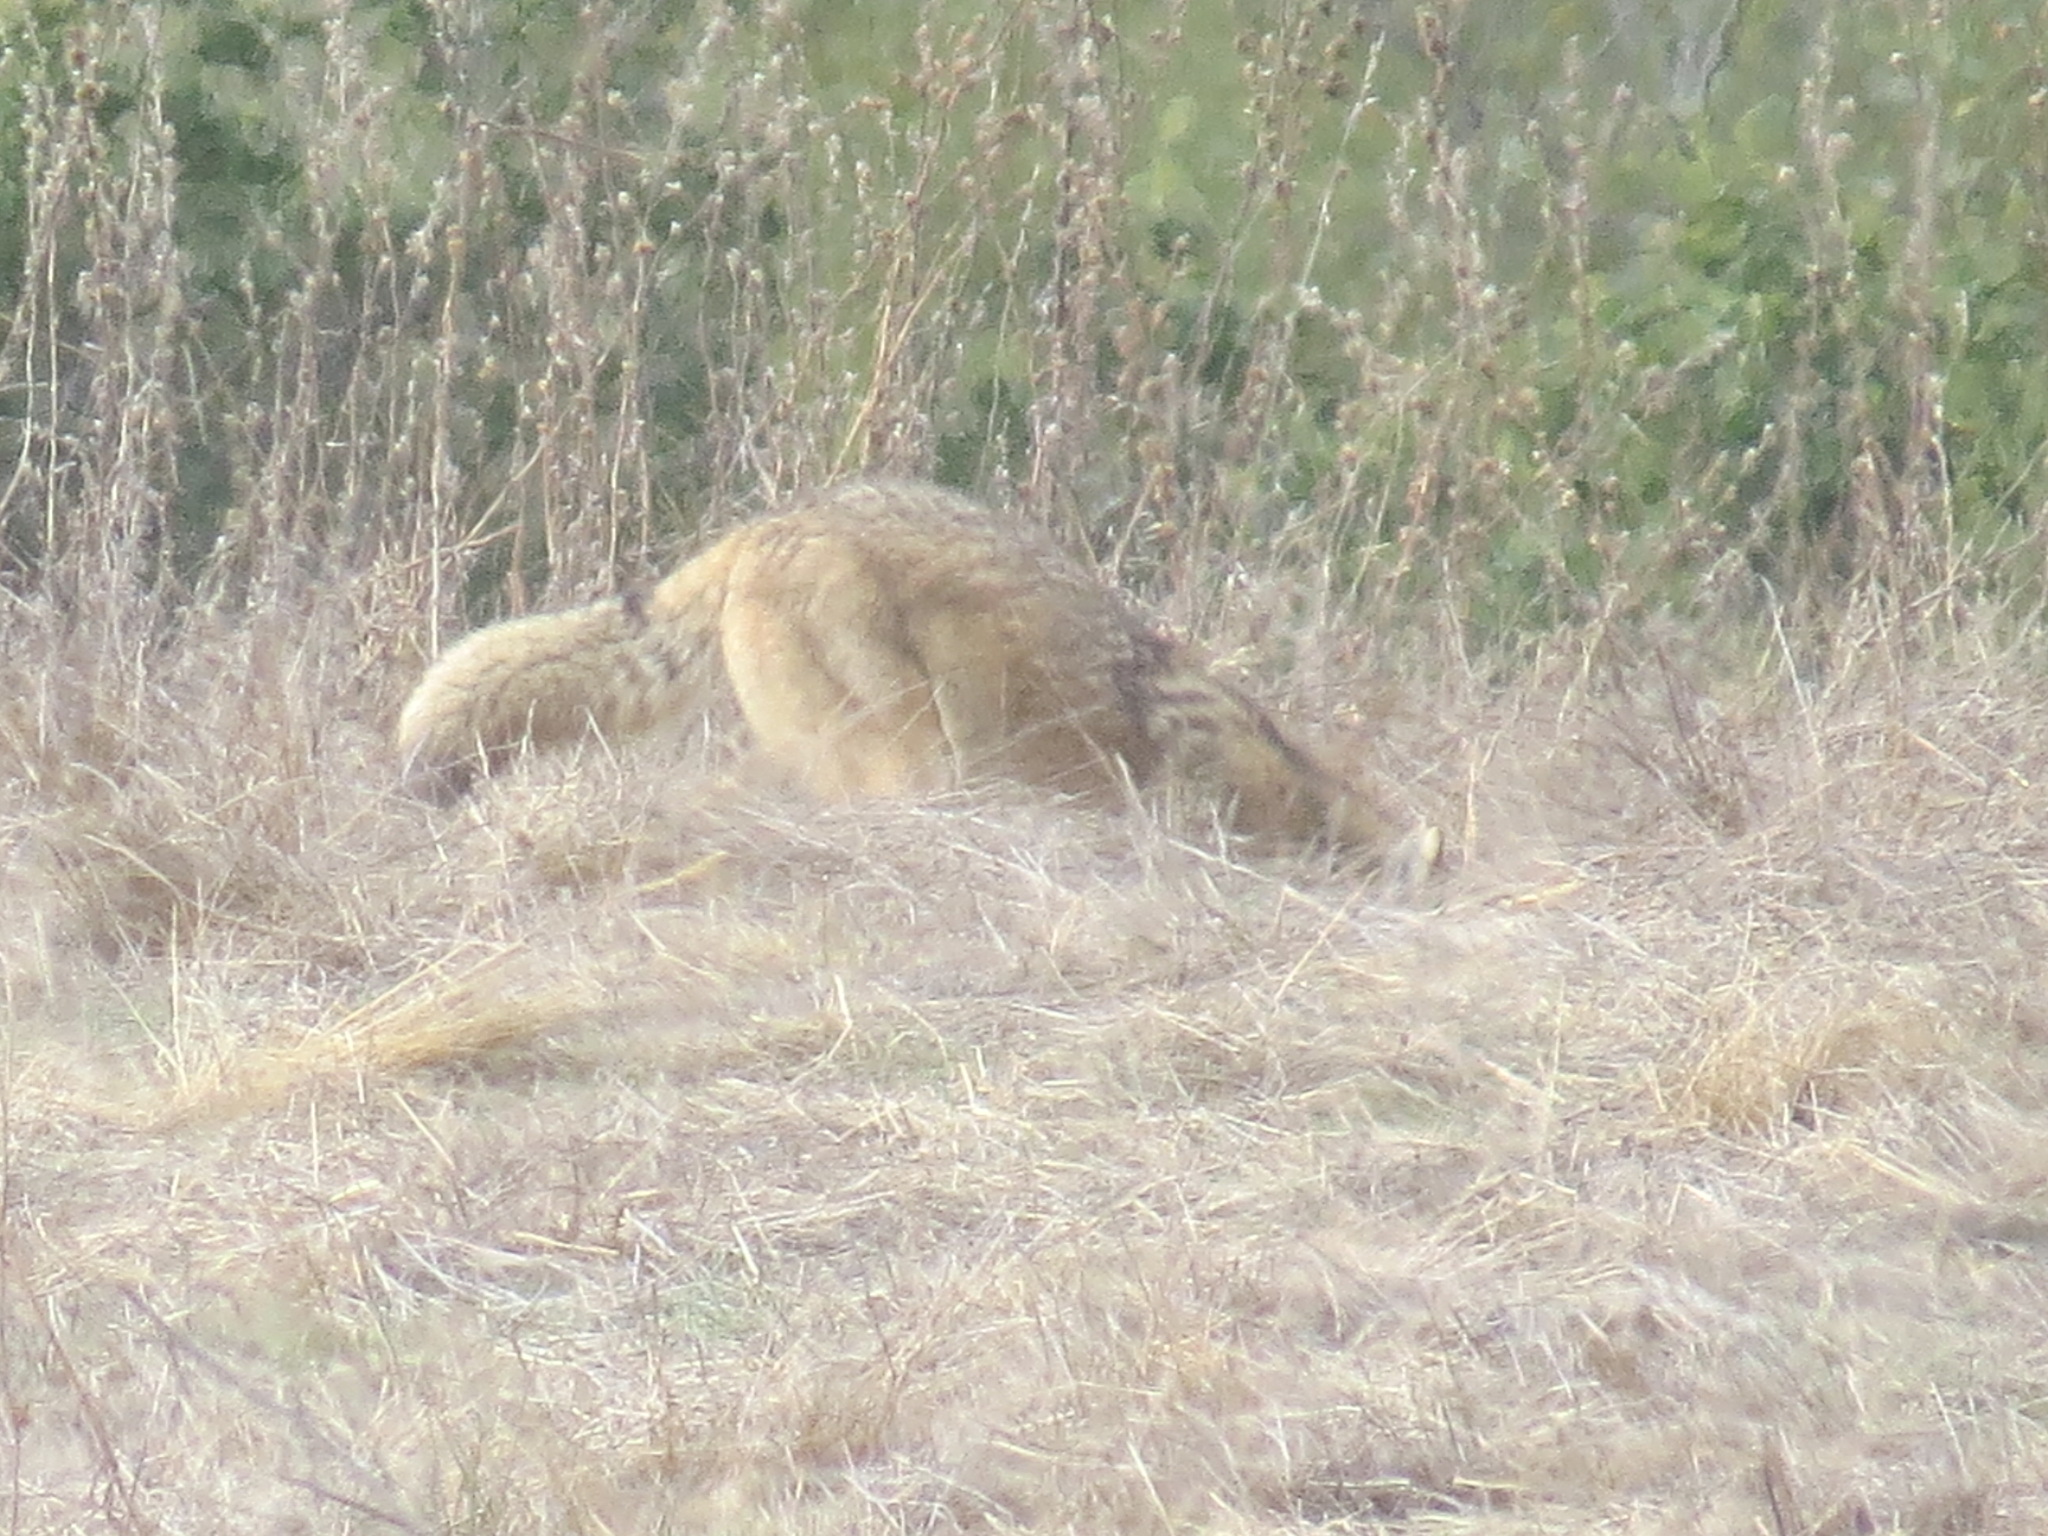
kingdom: Animalia
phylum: Chordata
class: Mammalia
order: Carnivora
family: Canidae
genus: Canis
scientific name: Canis latrans
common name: Coyote
